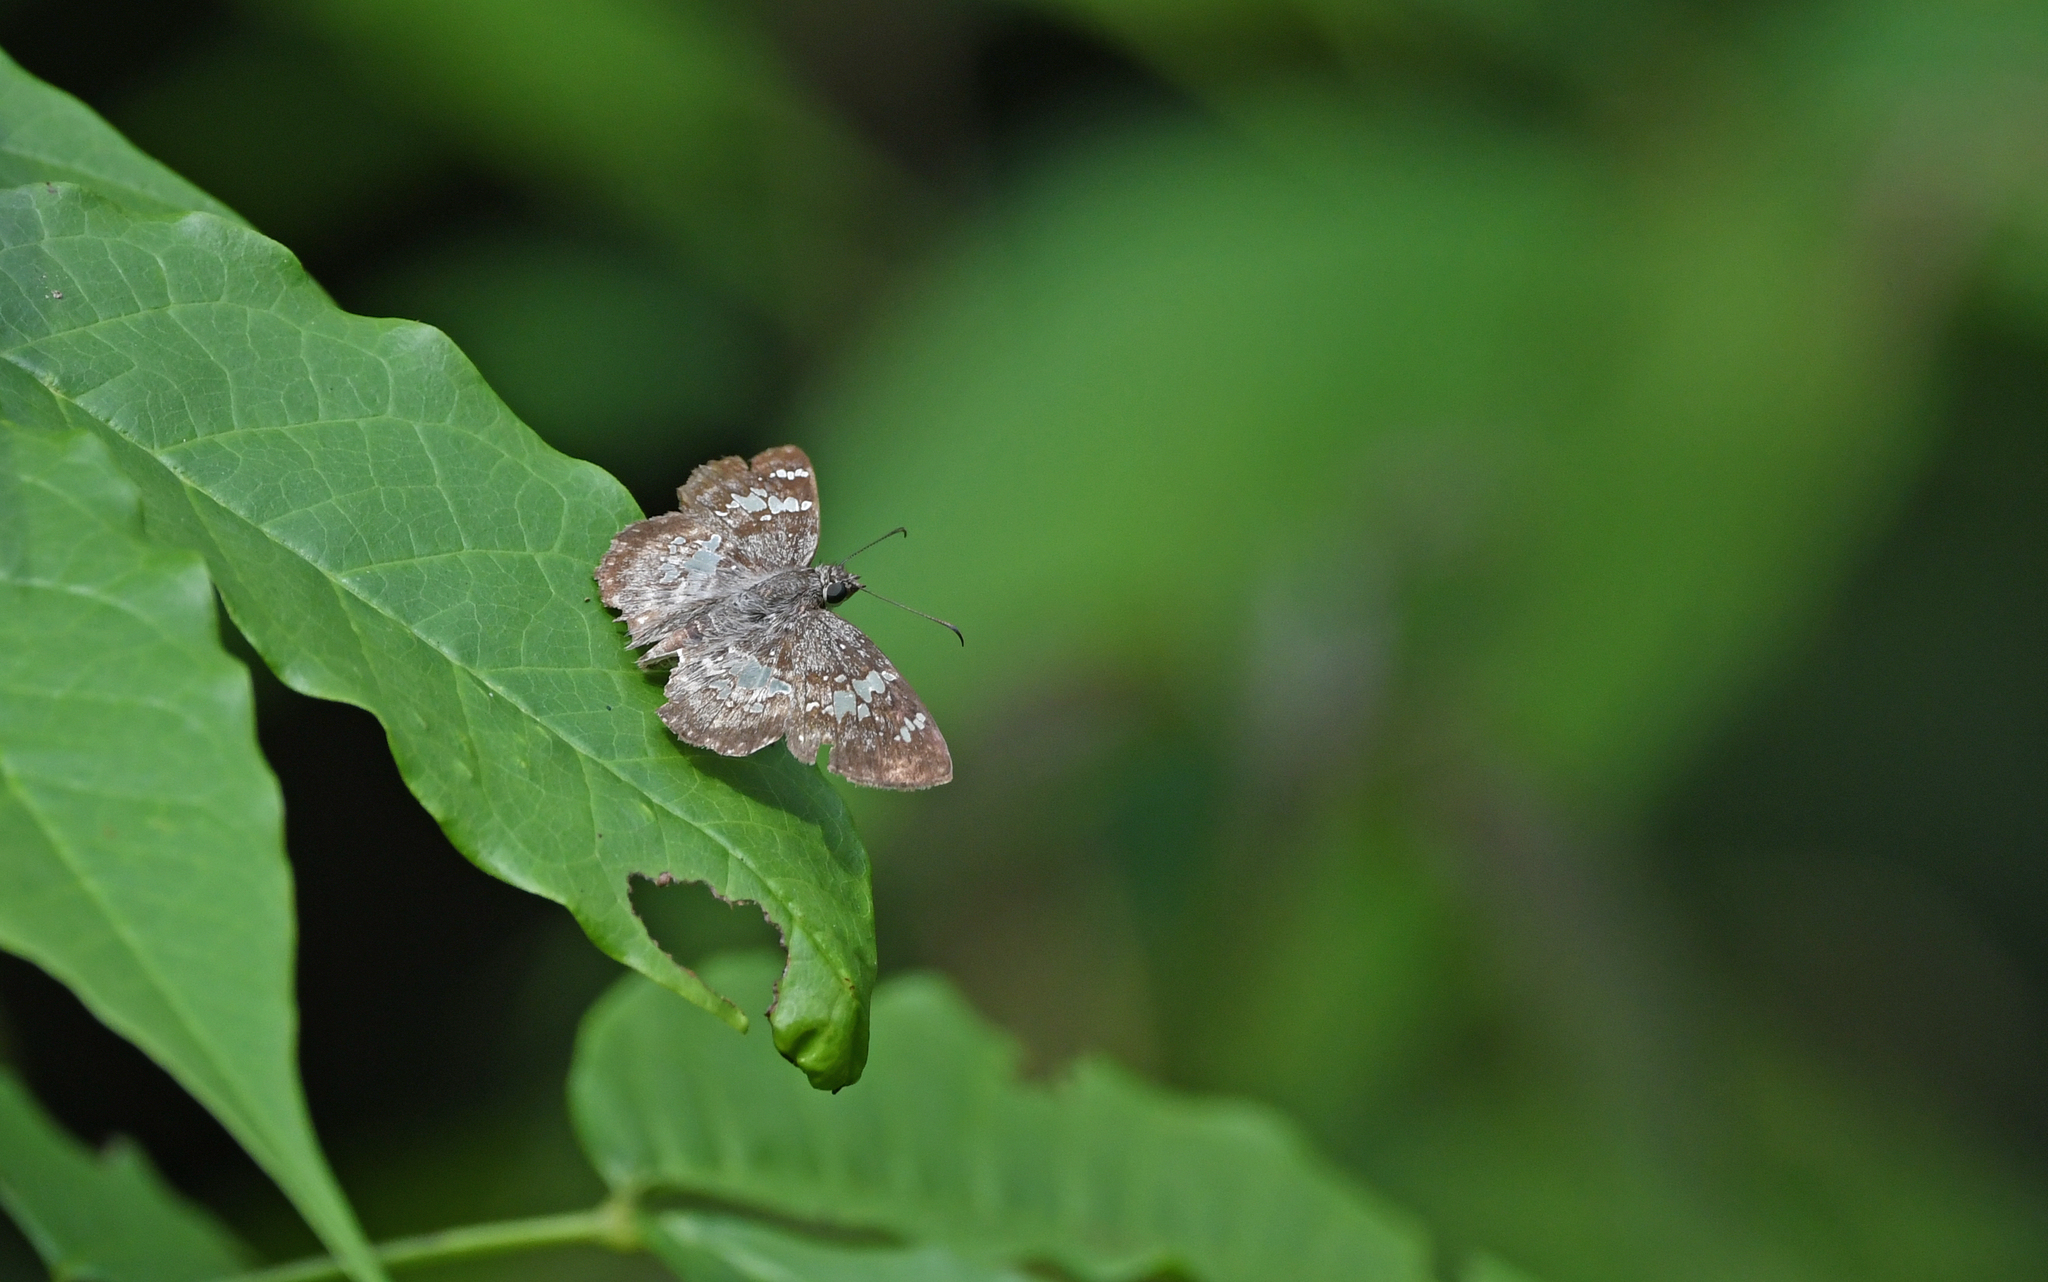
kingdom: Animalia
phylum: Arthropoda
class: Insecta
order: Lepidoptera
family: Hesperiidae
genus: Xenophanes
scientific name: Xenophanes tryxus
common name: Glassy-winged skipper
